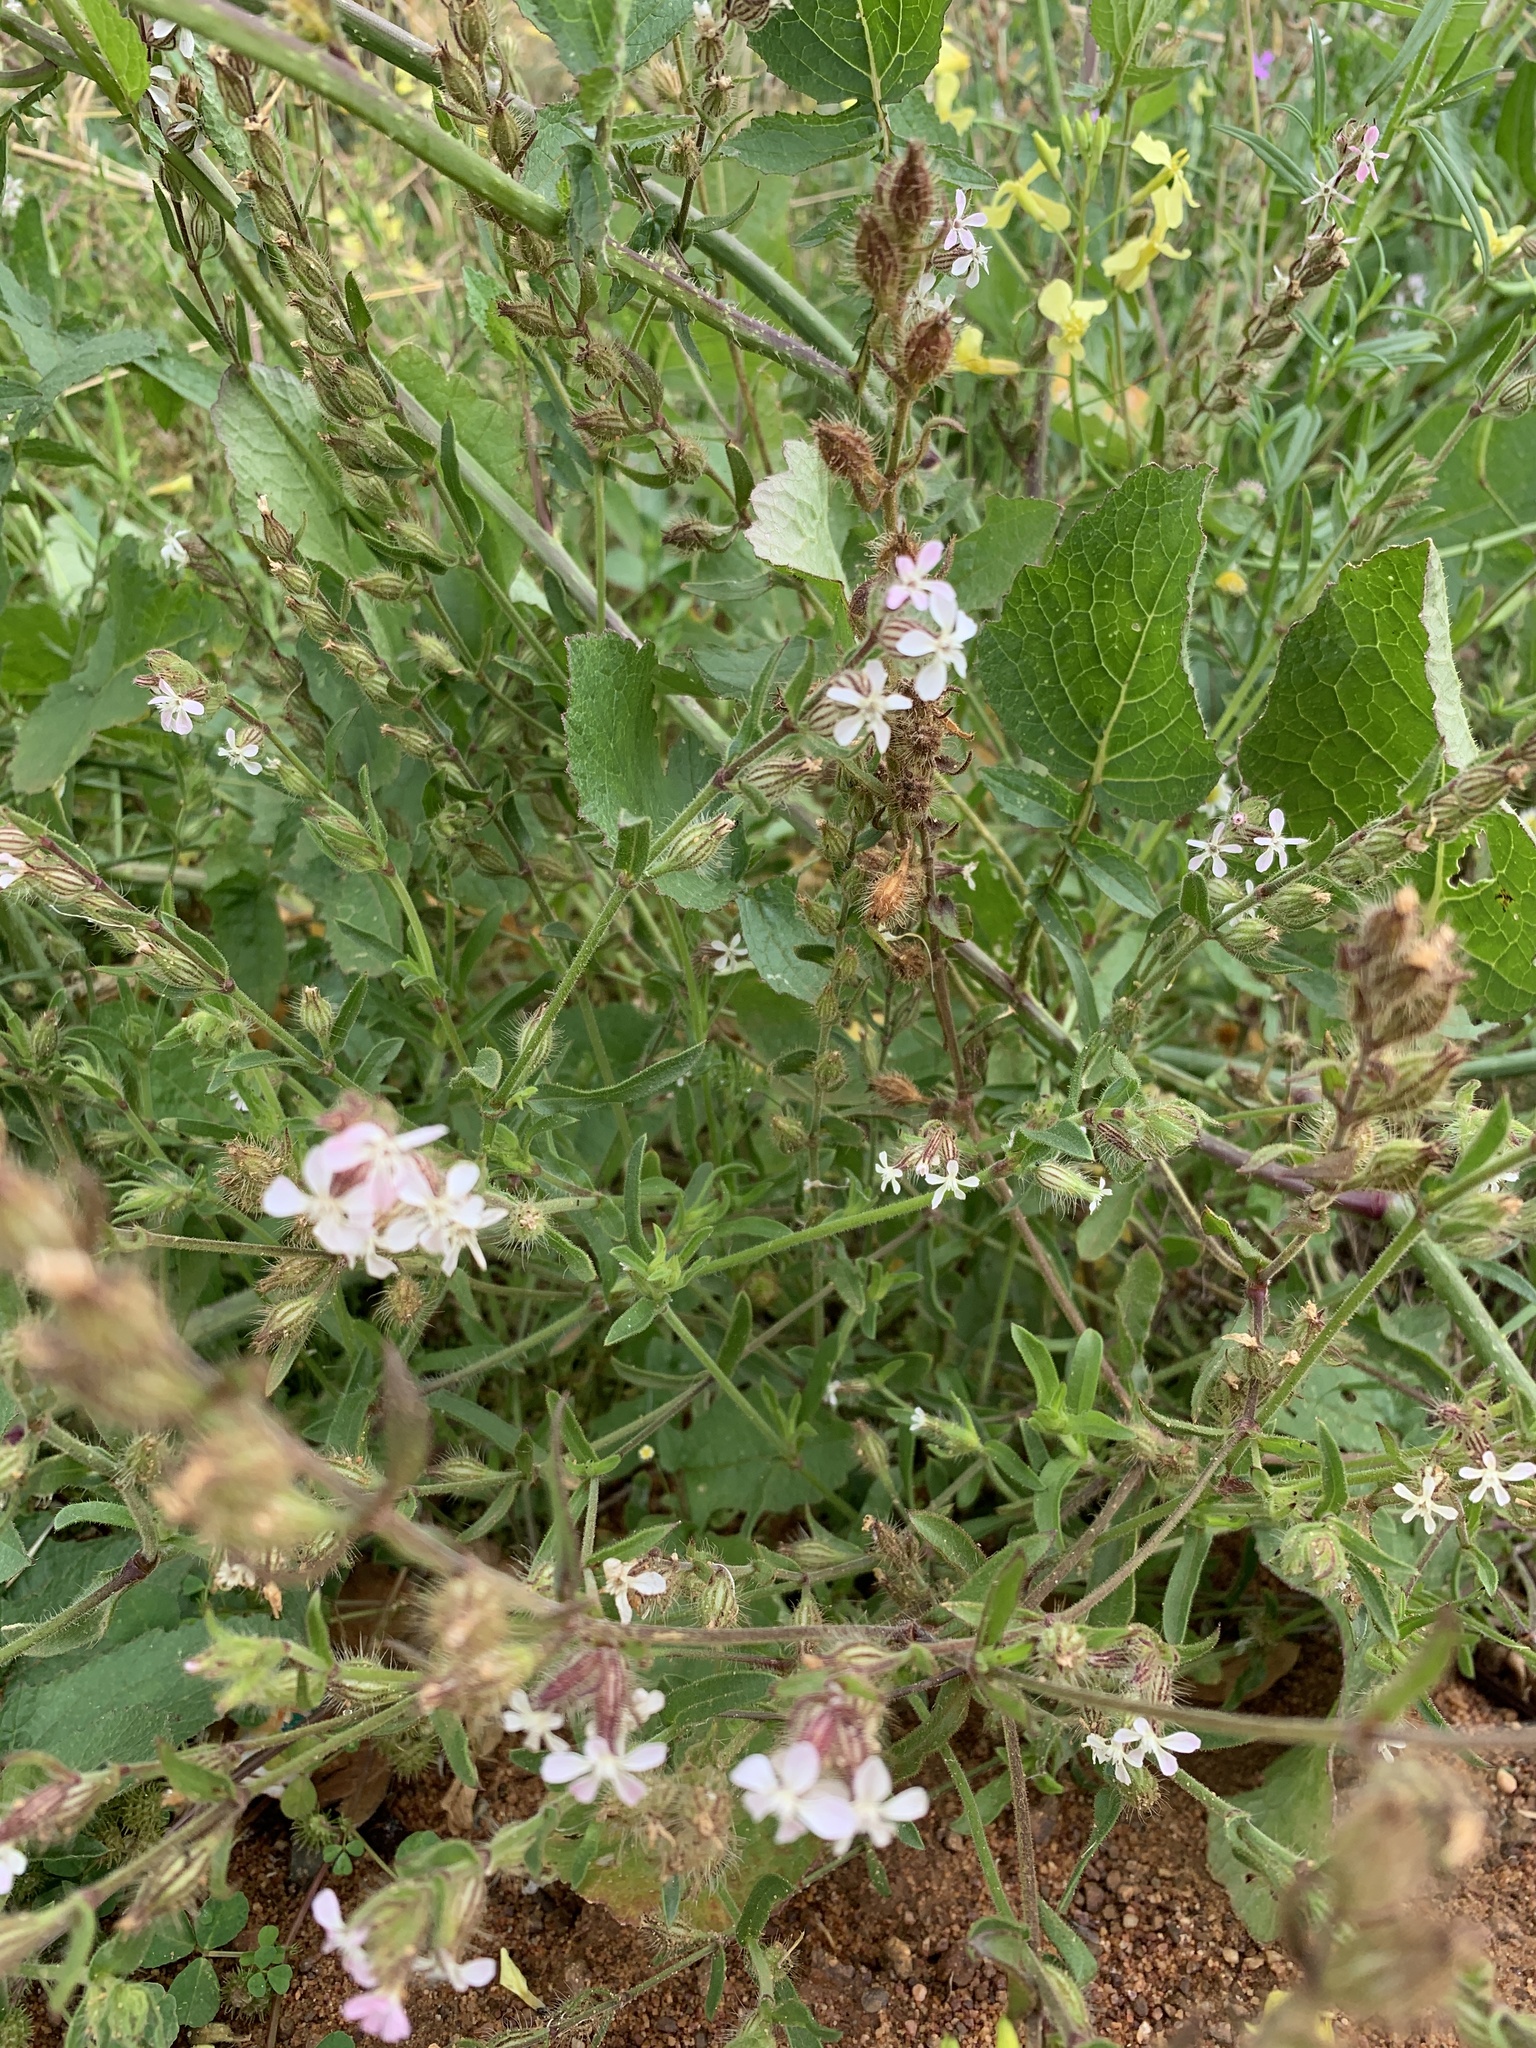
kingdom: Plantae
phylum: Tracheophyta
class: Magnoliopsida
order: Caryophyllales
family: Caryophyllaceae
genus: Silene
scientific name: Silene gallica
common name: Small-flowered catchfly
